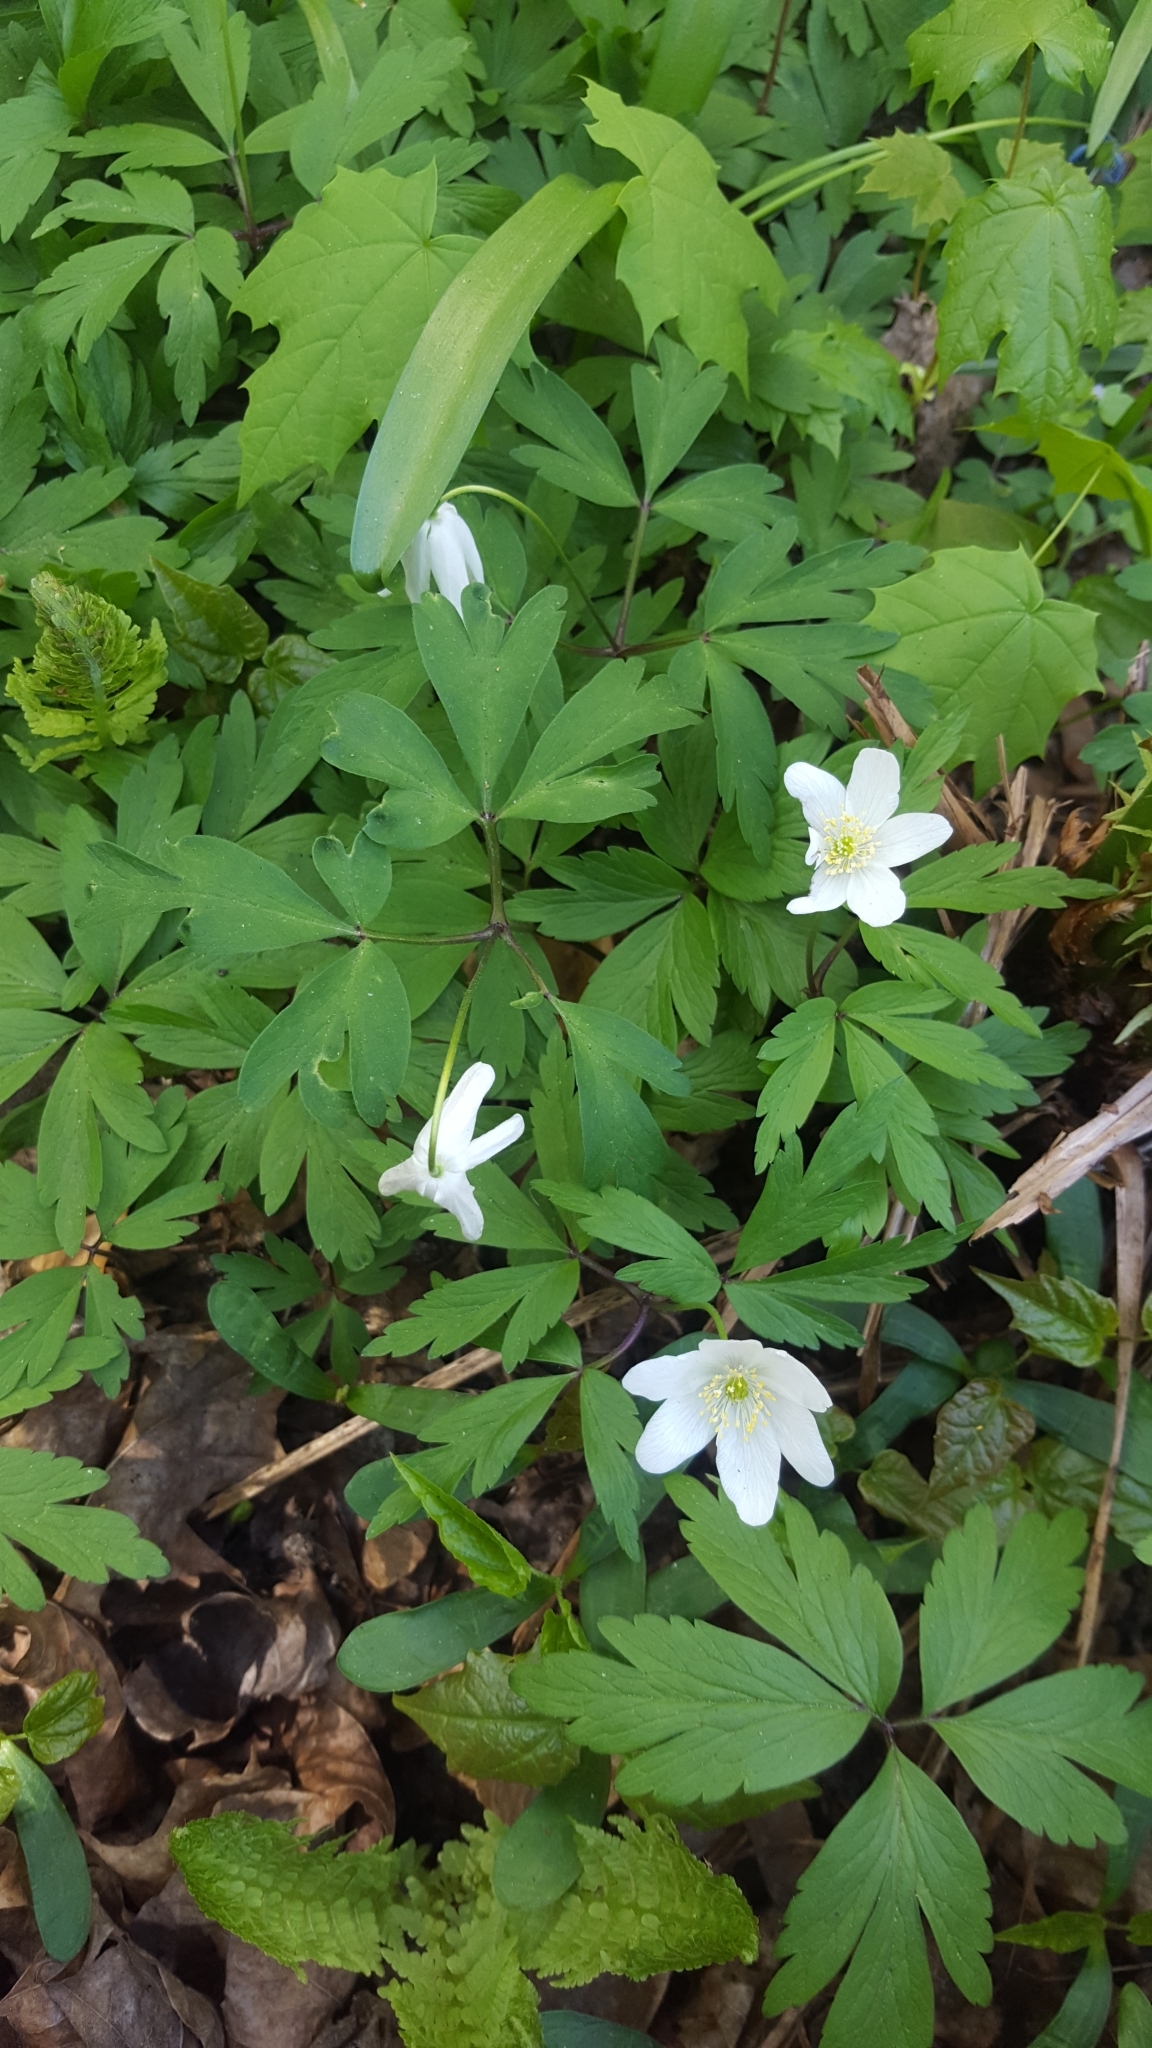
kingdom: Plantae
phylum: Tracheophyta
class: Magnoliopsida
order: Sapindales
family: Sapindaceae
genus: Acer
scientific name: Acer platanoides
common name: Norway maple
